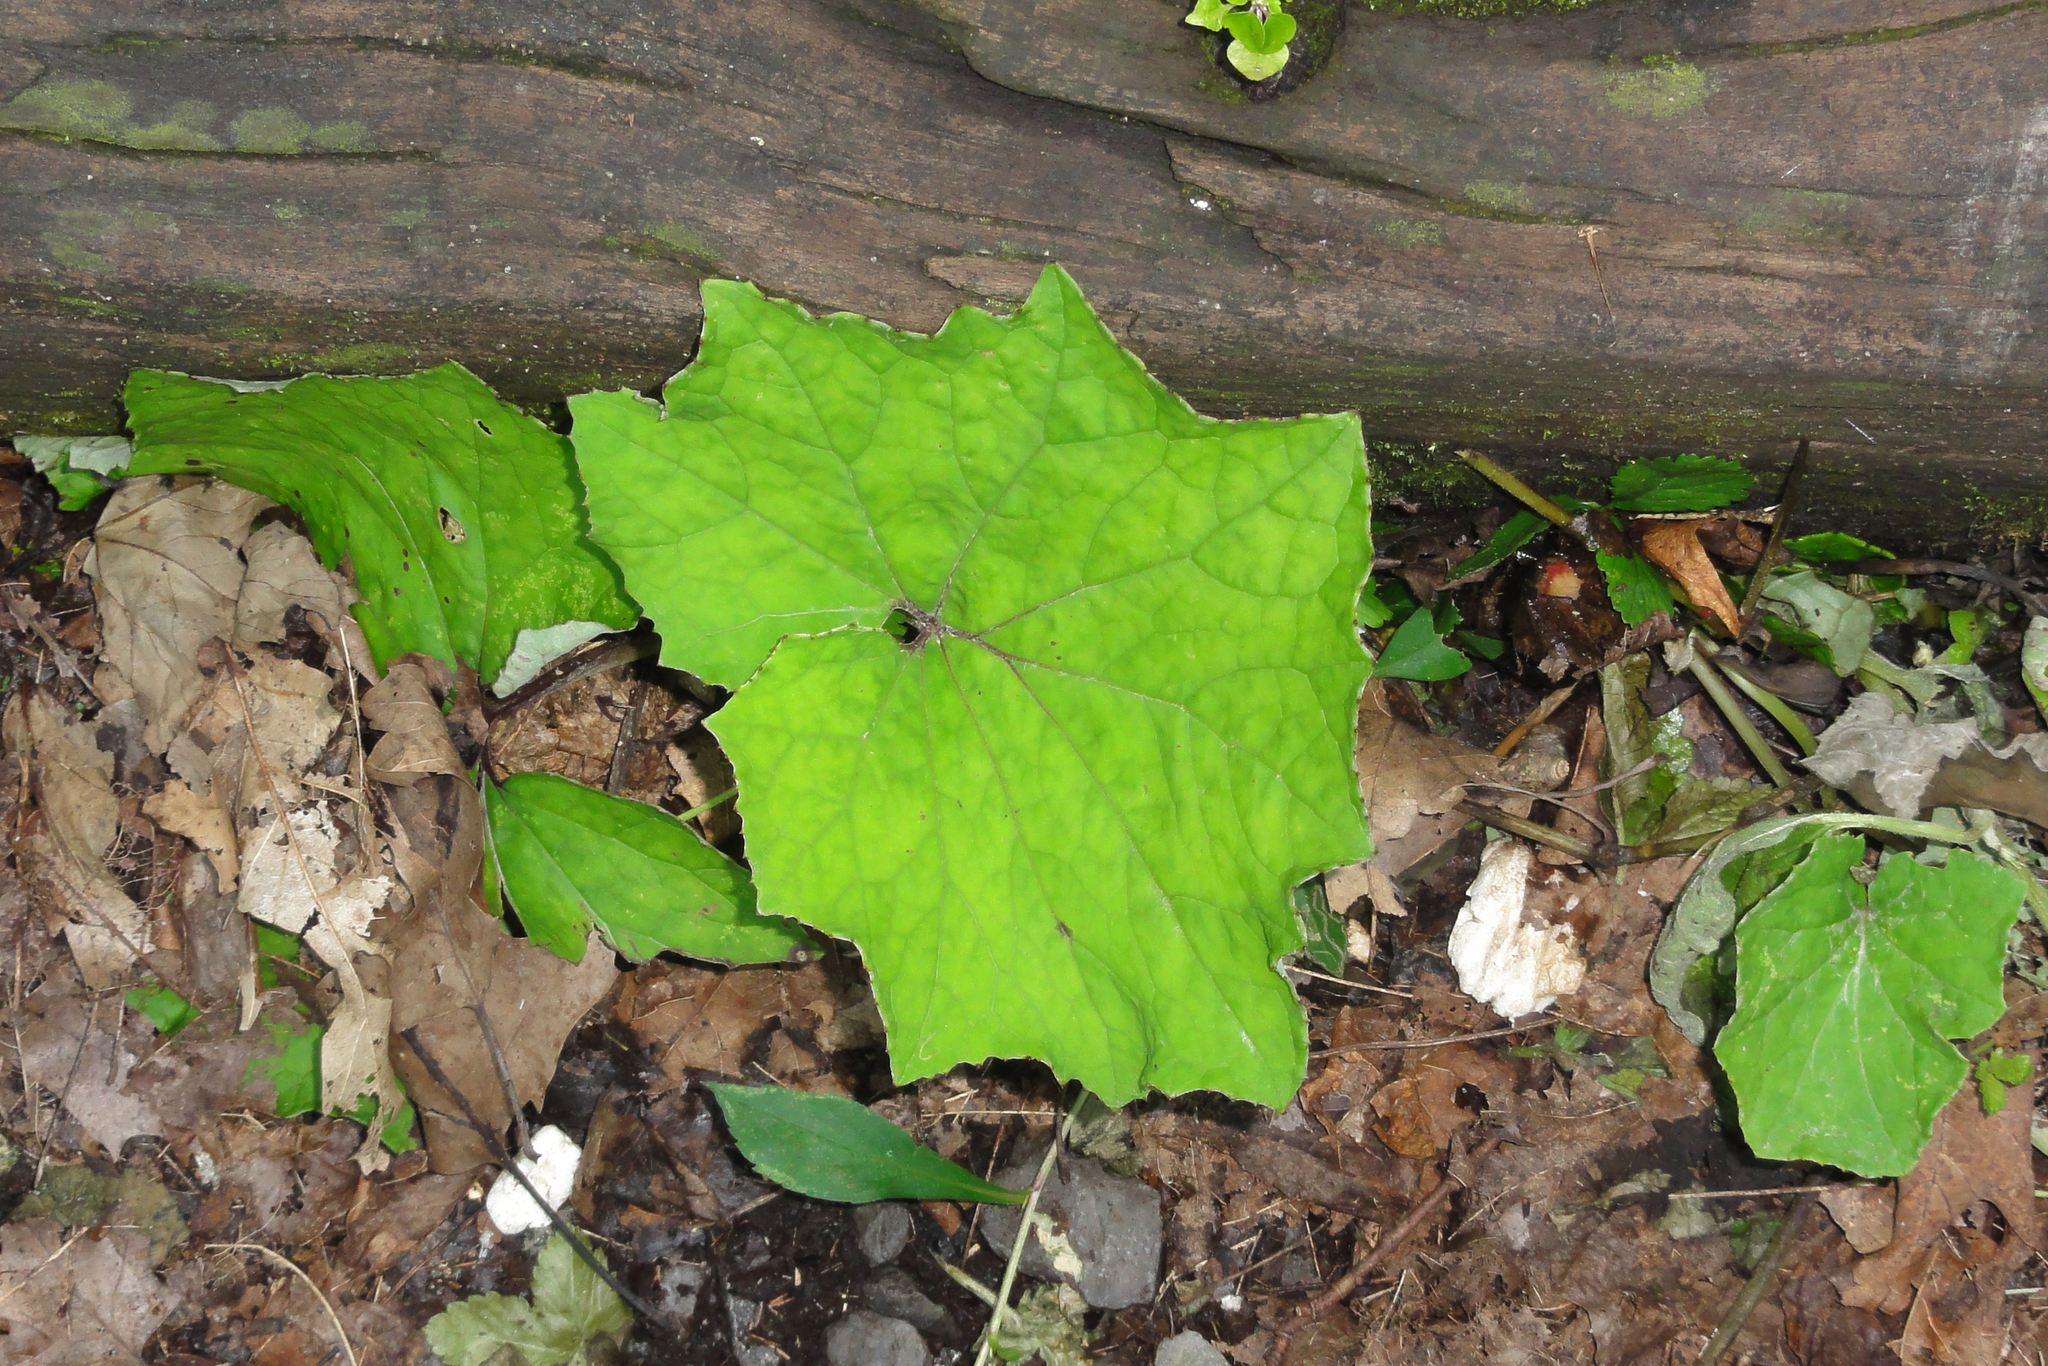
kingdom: Plantae
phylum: Tracheophyta
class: Magnoliopsida
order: Asterales
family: Asteraceae
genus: Tussilago
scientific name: Tussilago farfara
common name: Coltsfoot
